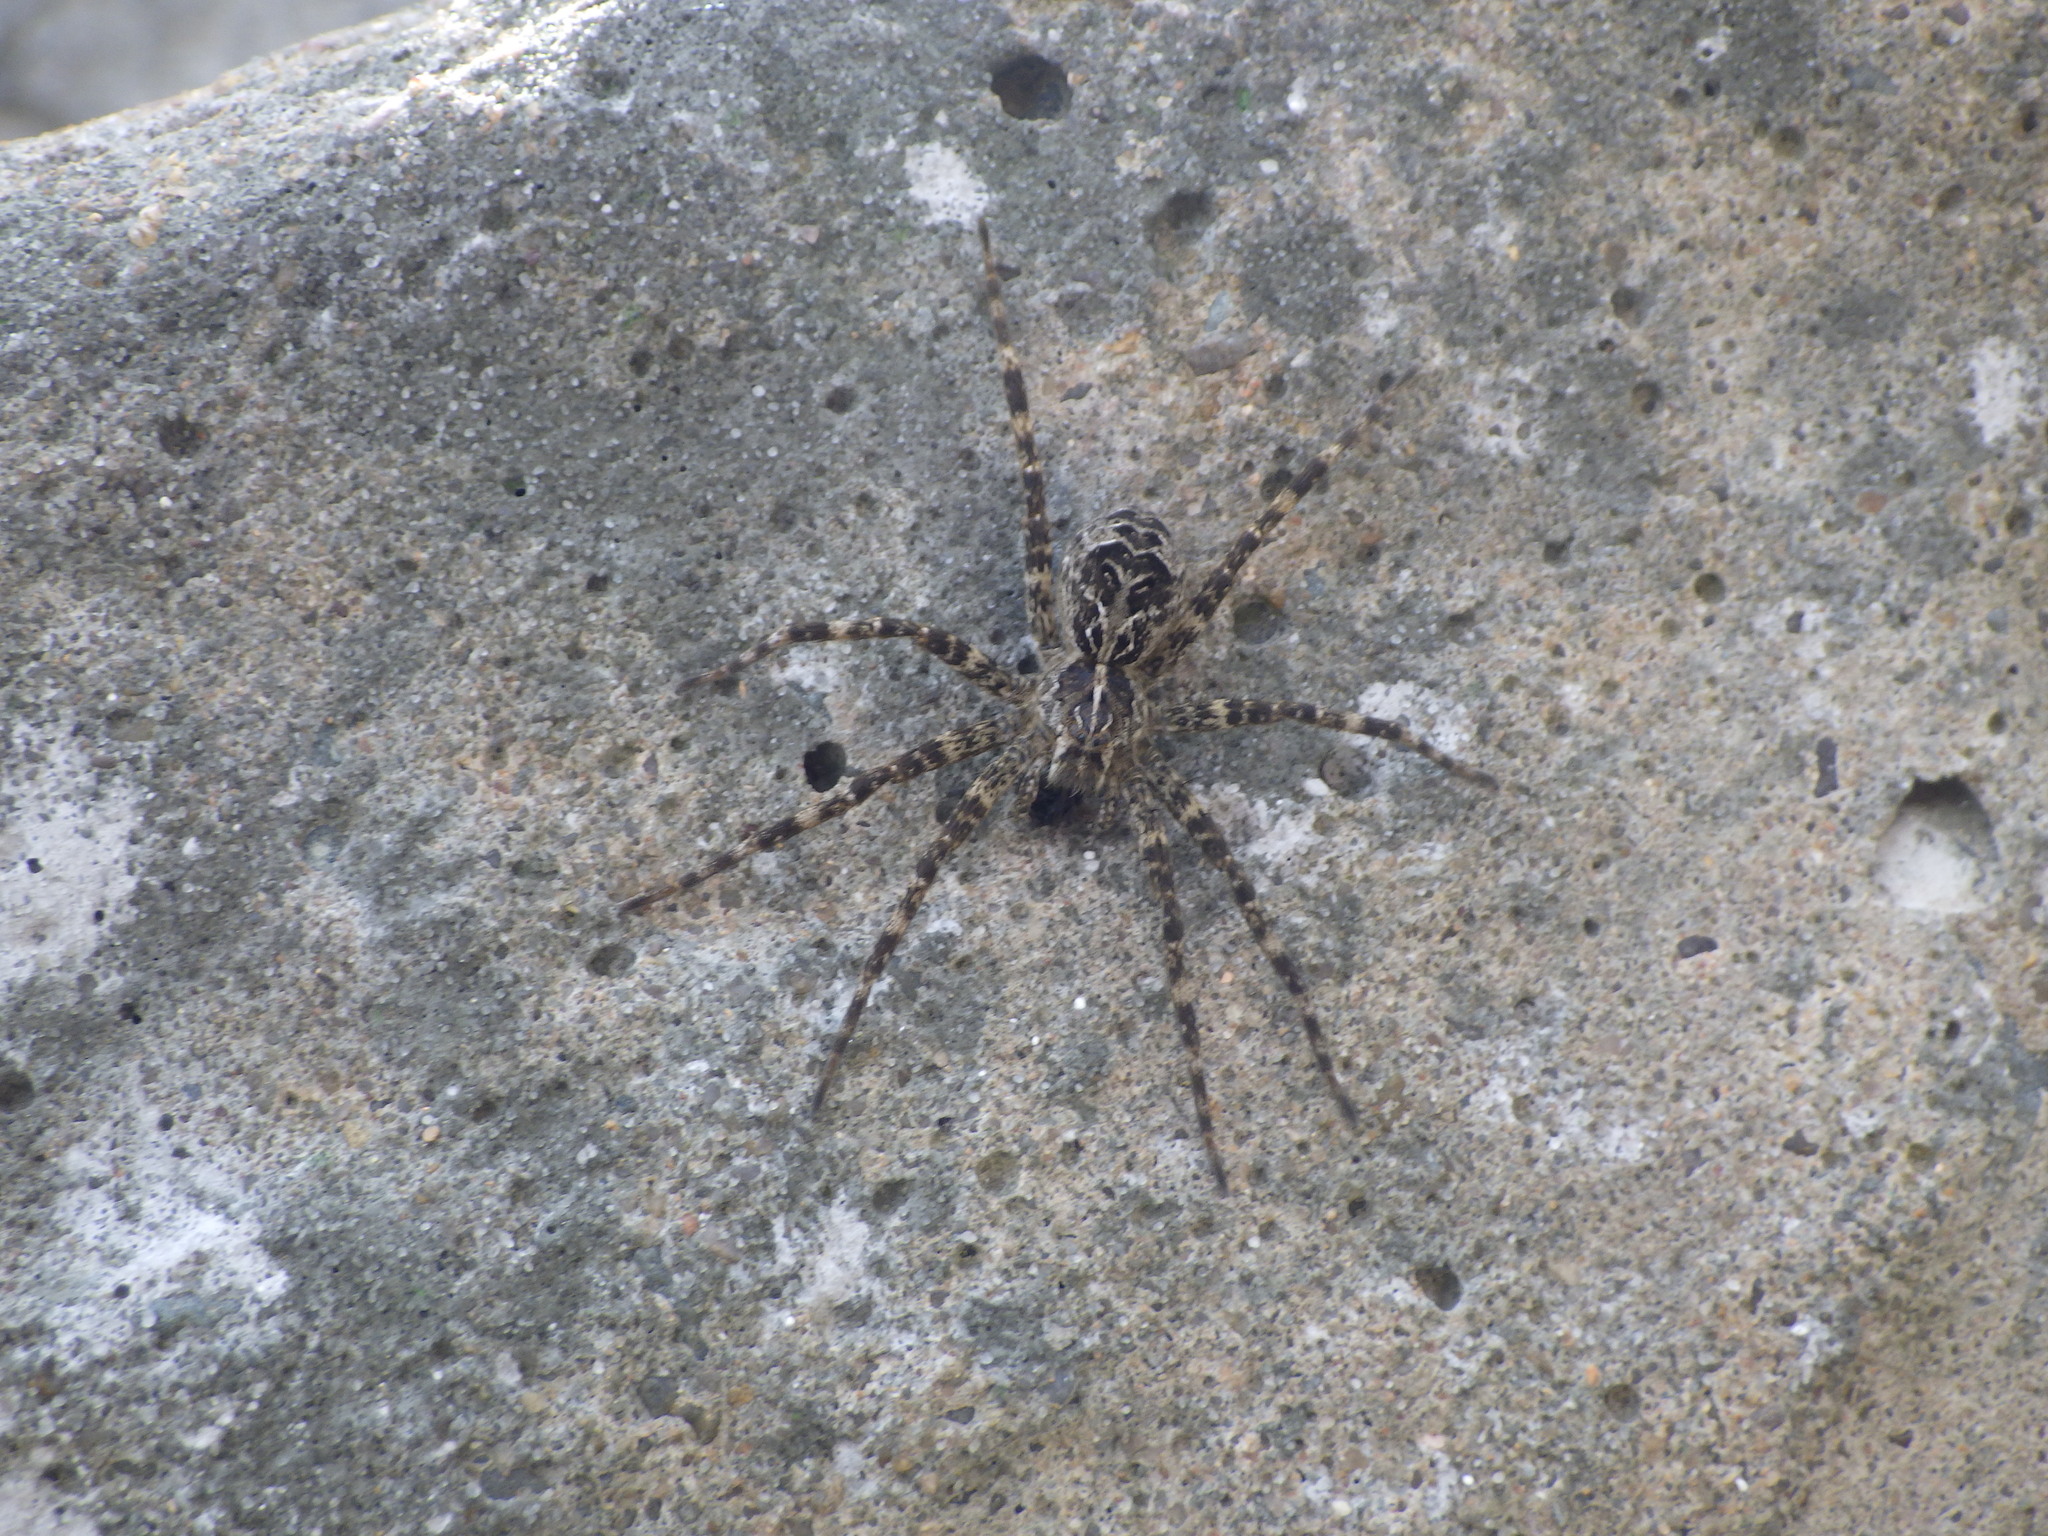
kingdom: Animalia
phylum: Arthropoda
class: Arachnida
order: Araneae
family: Pisauridae
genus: Dolomedes
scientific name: Dolomedes scriptus
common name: Striped fishing spider
